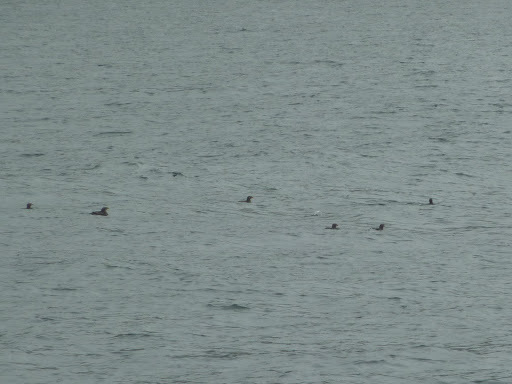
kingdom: Animalia
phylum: Chordata
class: Aves
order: Charadriiformes
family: Alcidae
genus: Cerorhinca
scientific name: Cerorhinca monocerata
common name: Rhinoceros auklet
